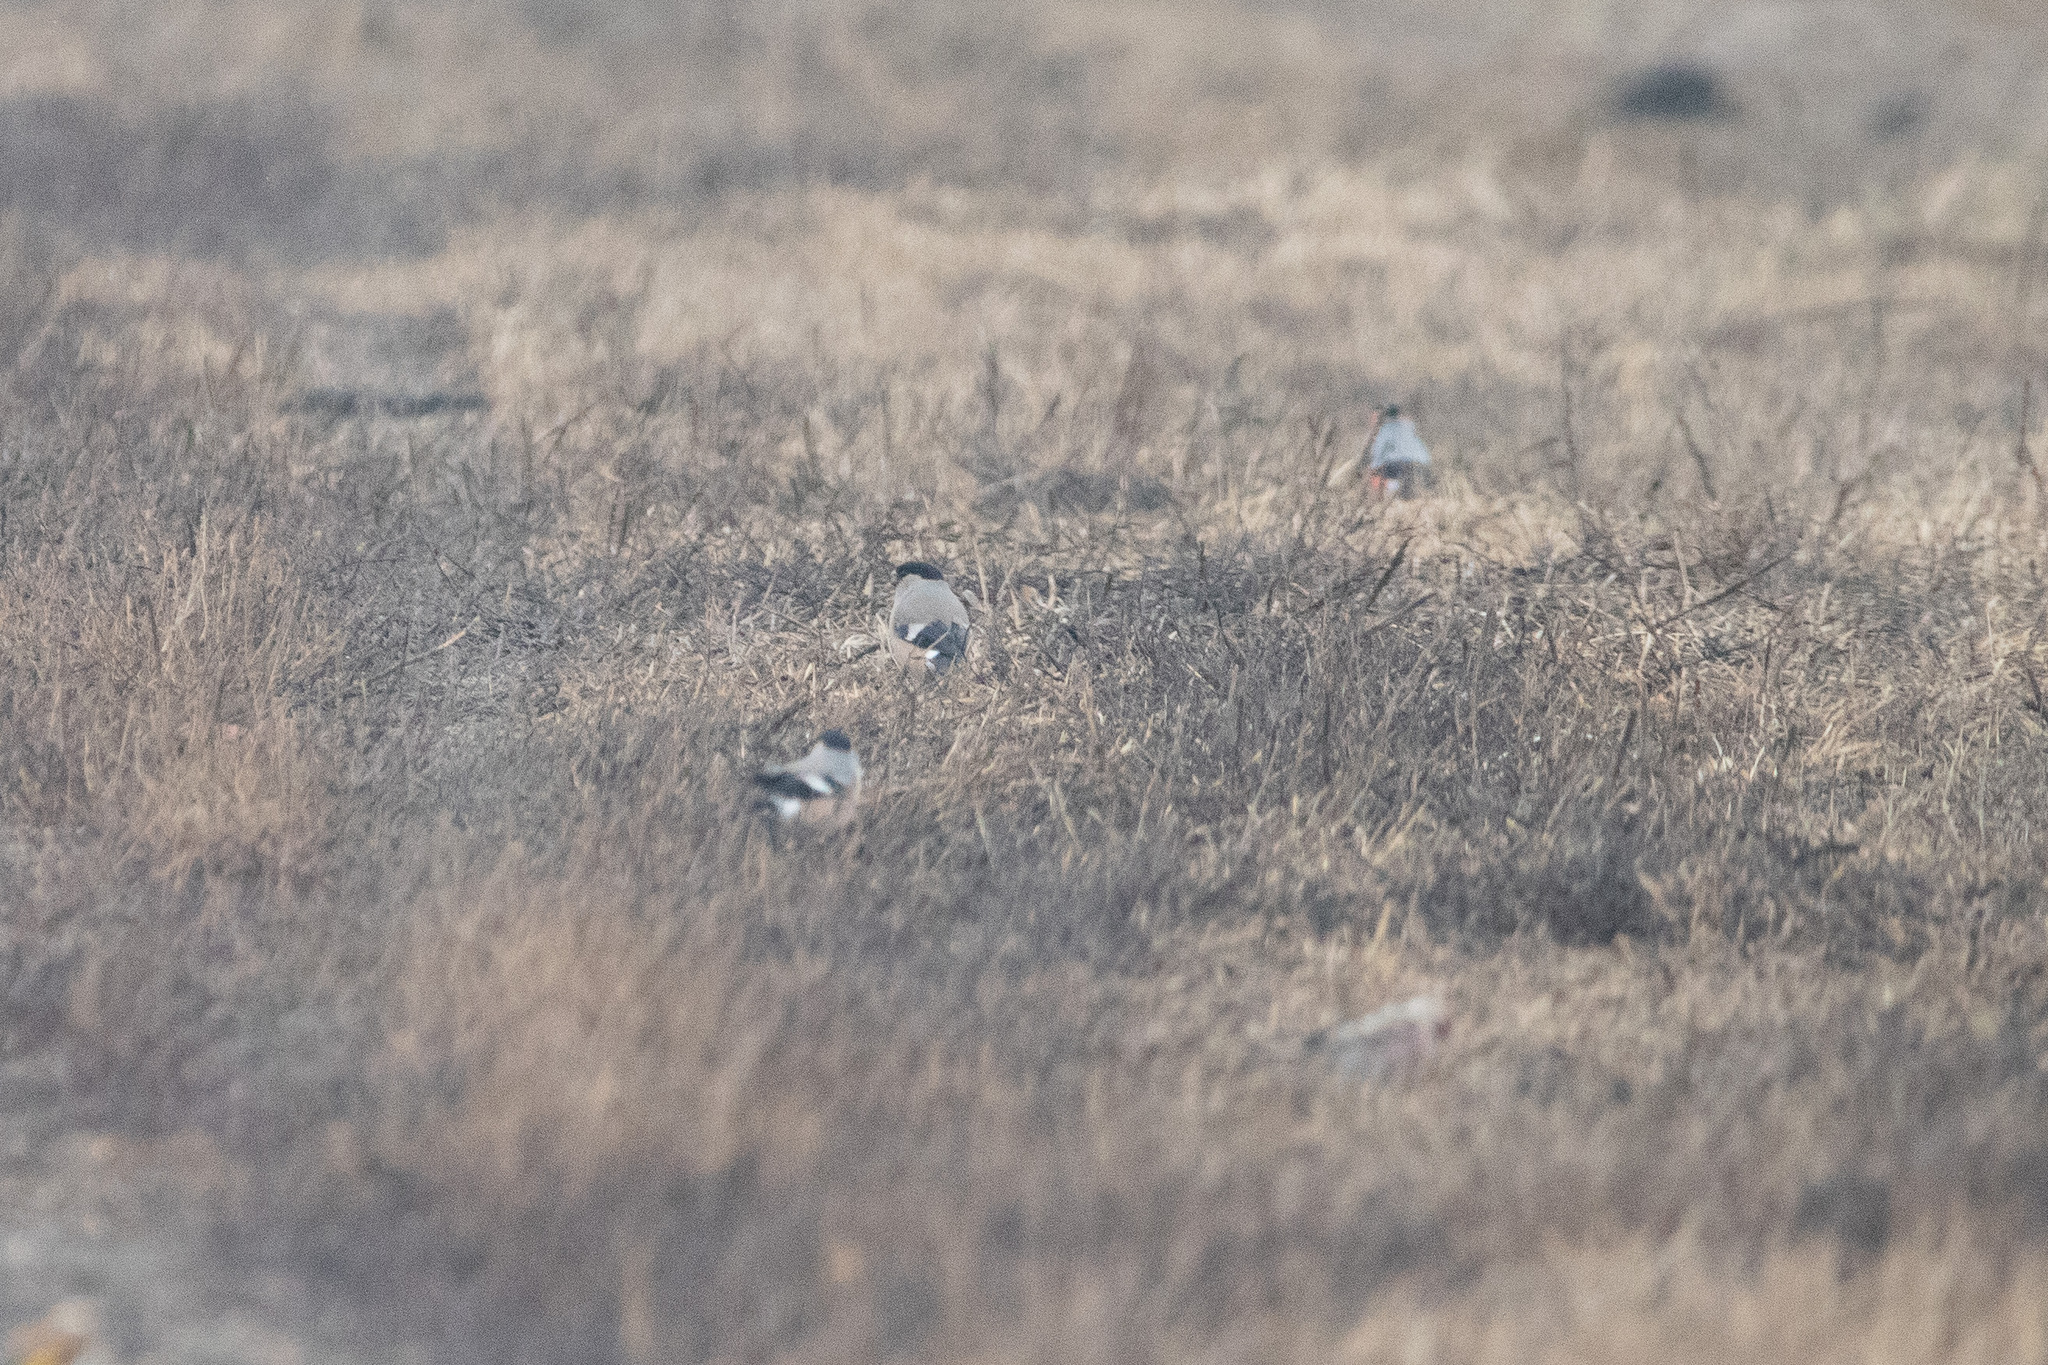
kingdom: Animalia
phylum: Chordata
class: Aves
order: Passeriformes
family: Fringillidae
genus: Pyrrhula
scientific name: Pyrrhula pyrrhula
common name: Eurasian bullfinch
